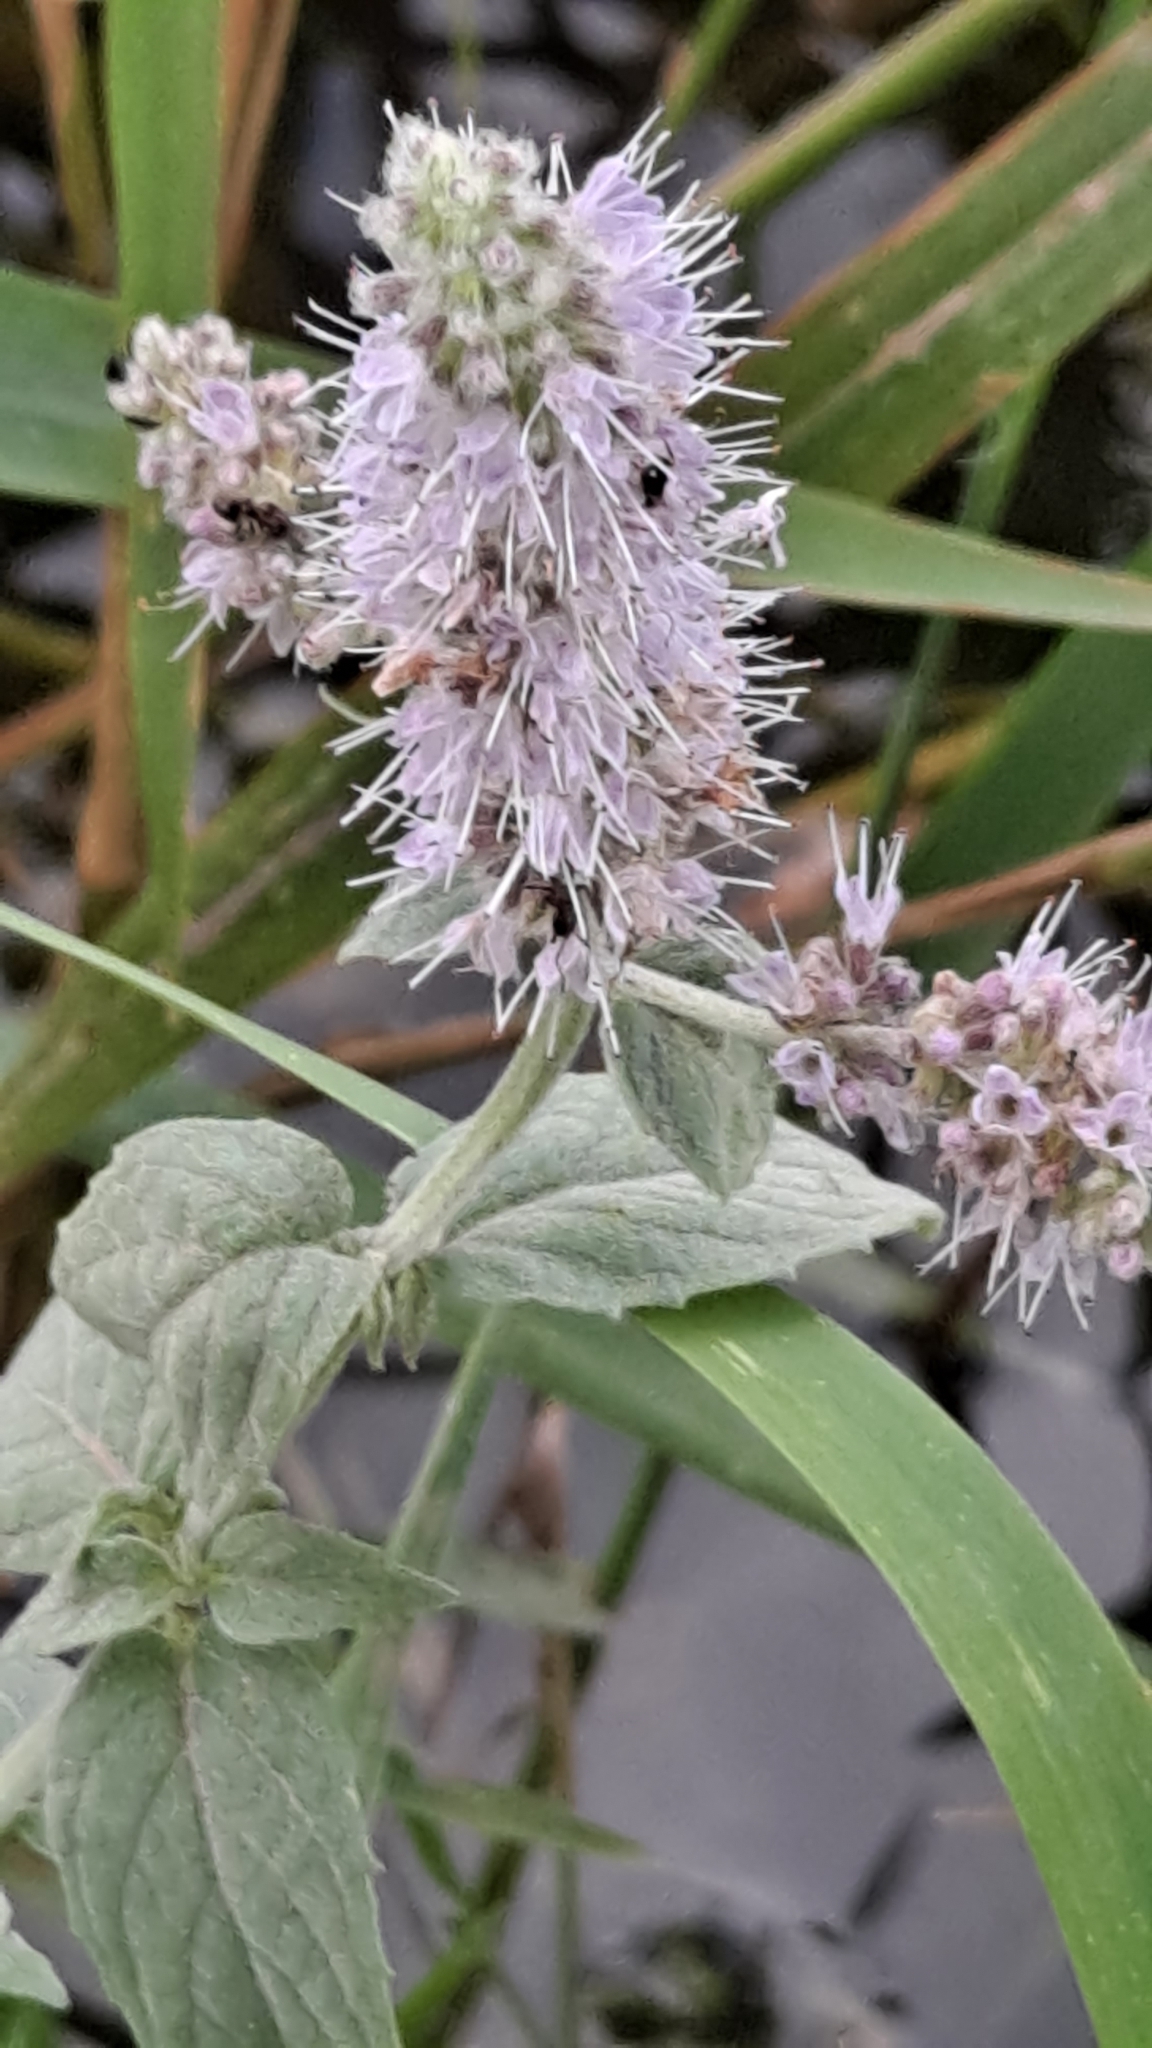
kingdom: Plantae
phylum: Tracheophyta
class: Magnoliopsida
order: Lamiales
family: Lamiaceae
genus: Mentha
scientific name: Mentha longifolia
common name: Horse mint
